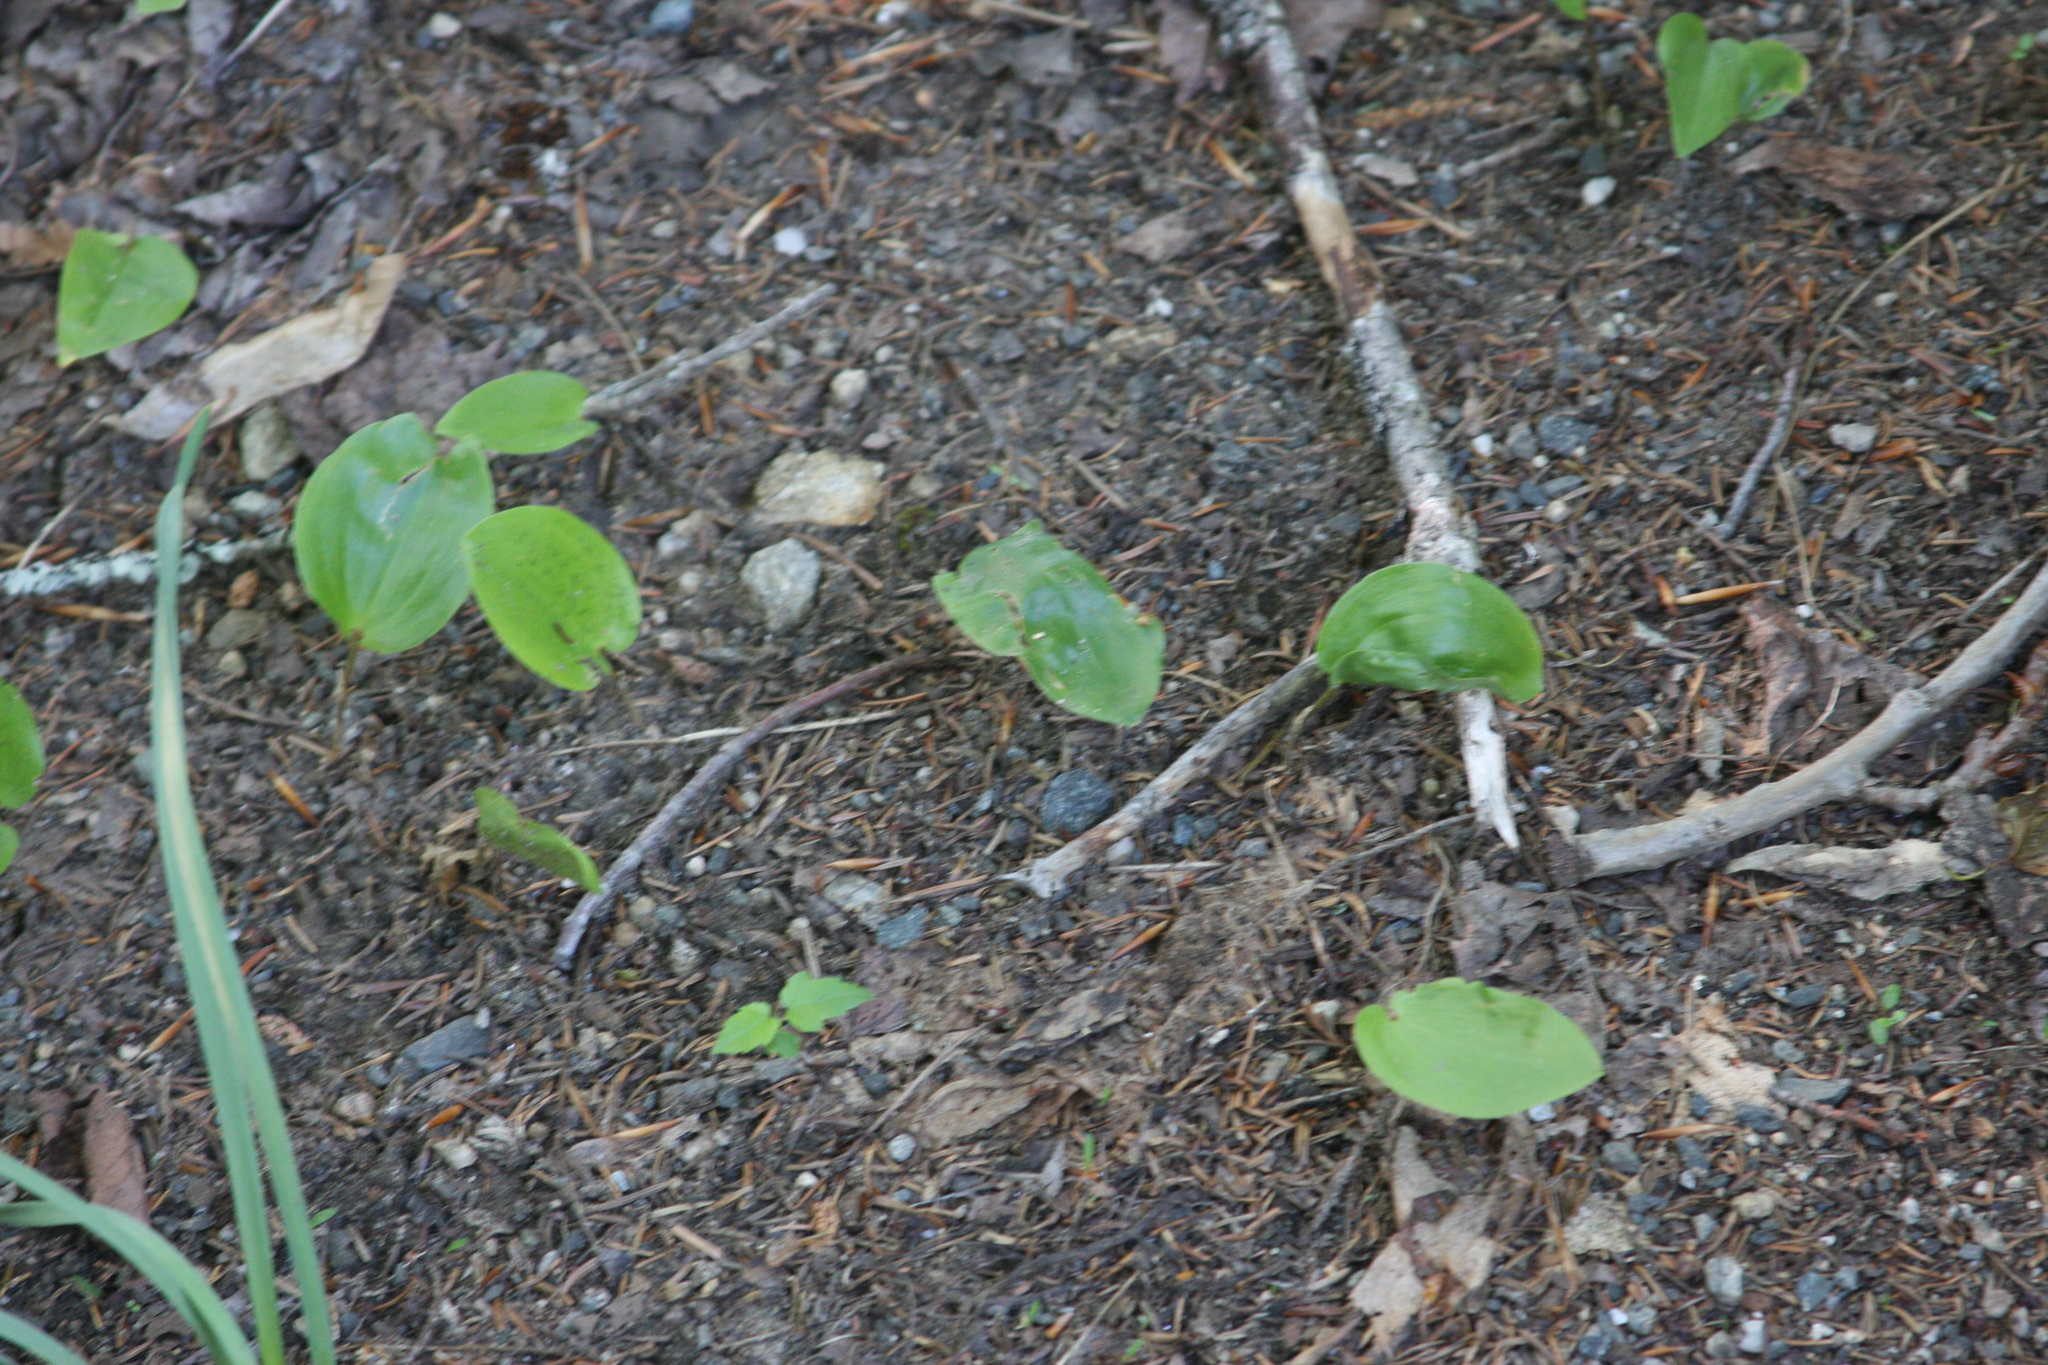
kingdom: Plantae
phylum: Tracheophyta
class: Liliopsida
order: Asparagales
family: Asparagaceae
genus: Maianthemum
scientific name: Maianthemum canadense
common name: False lily-of-the-valley
